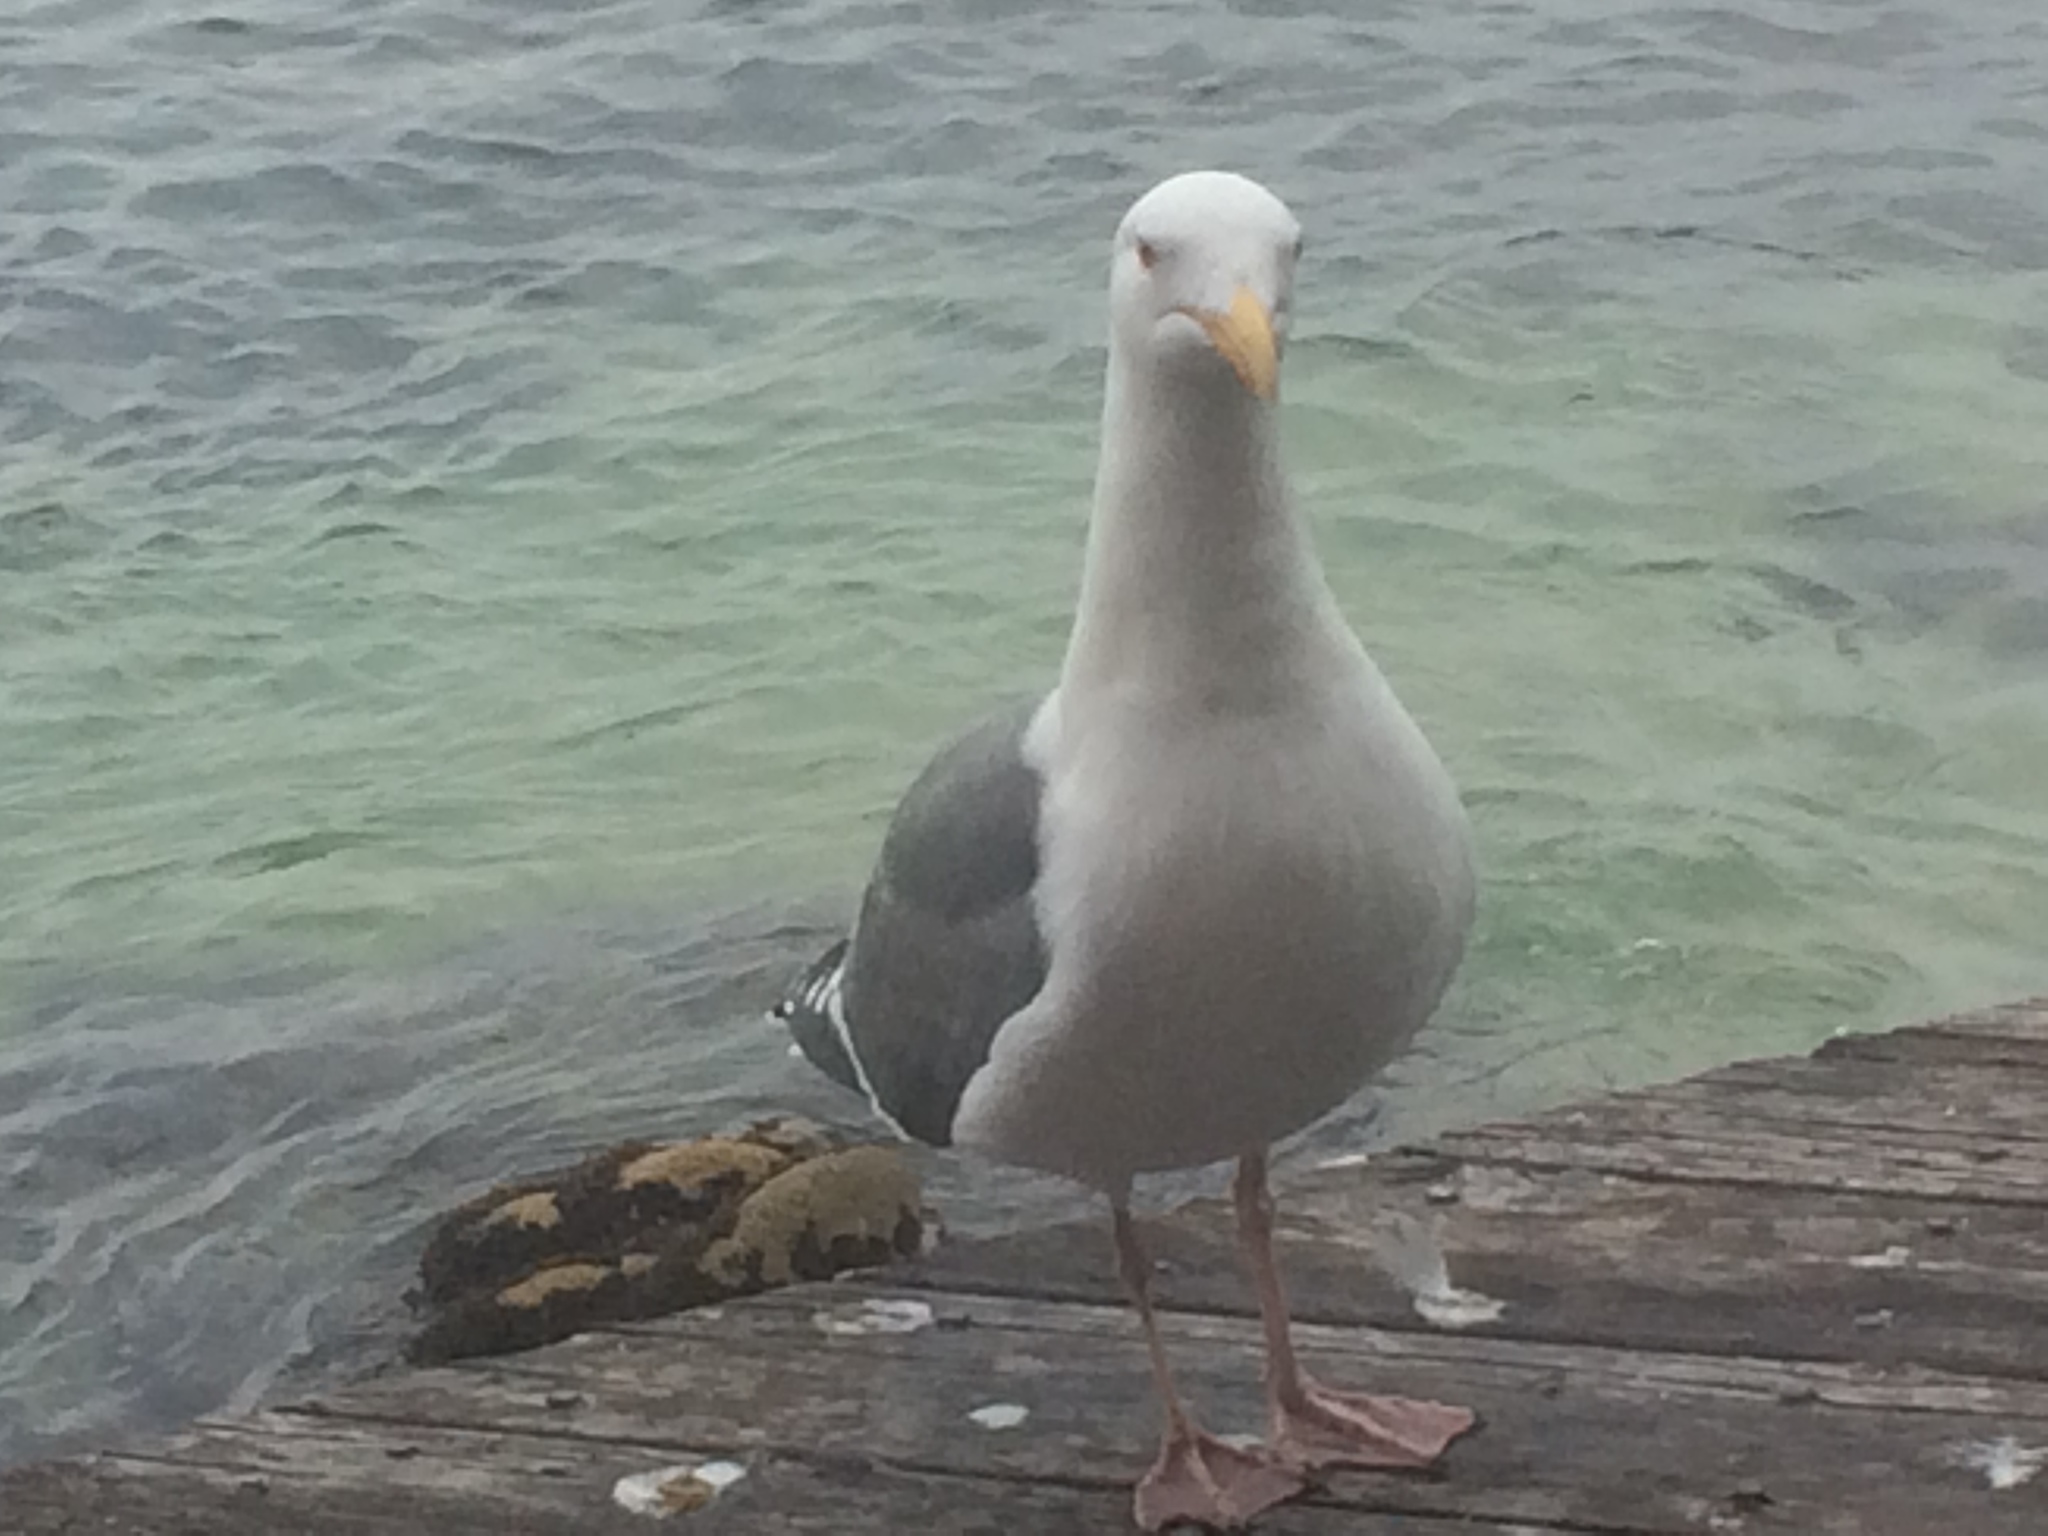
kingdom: Animalia
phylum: Chordata
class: Aves
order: Charadriiformes
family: Laridae
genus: Larus
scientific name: Larus occidentalis
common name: Western gull
